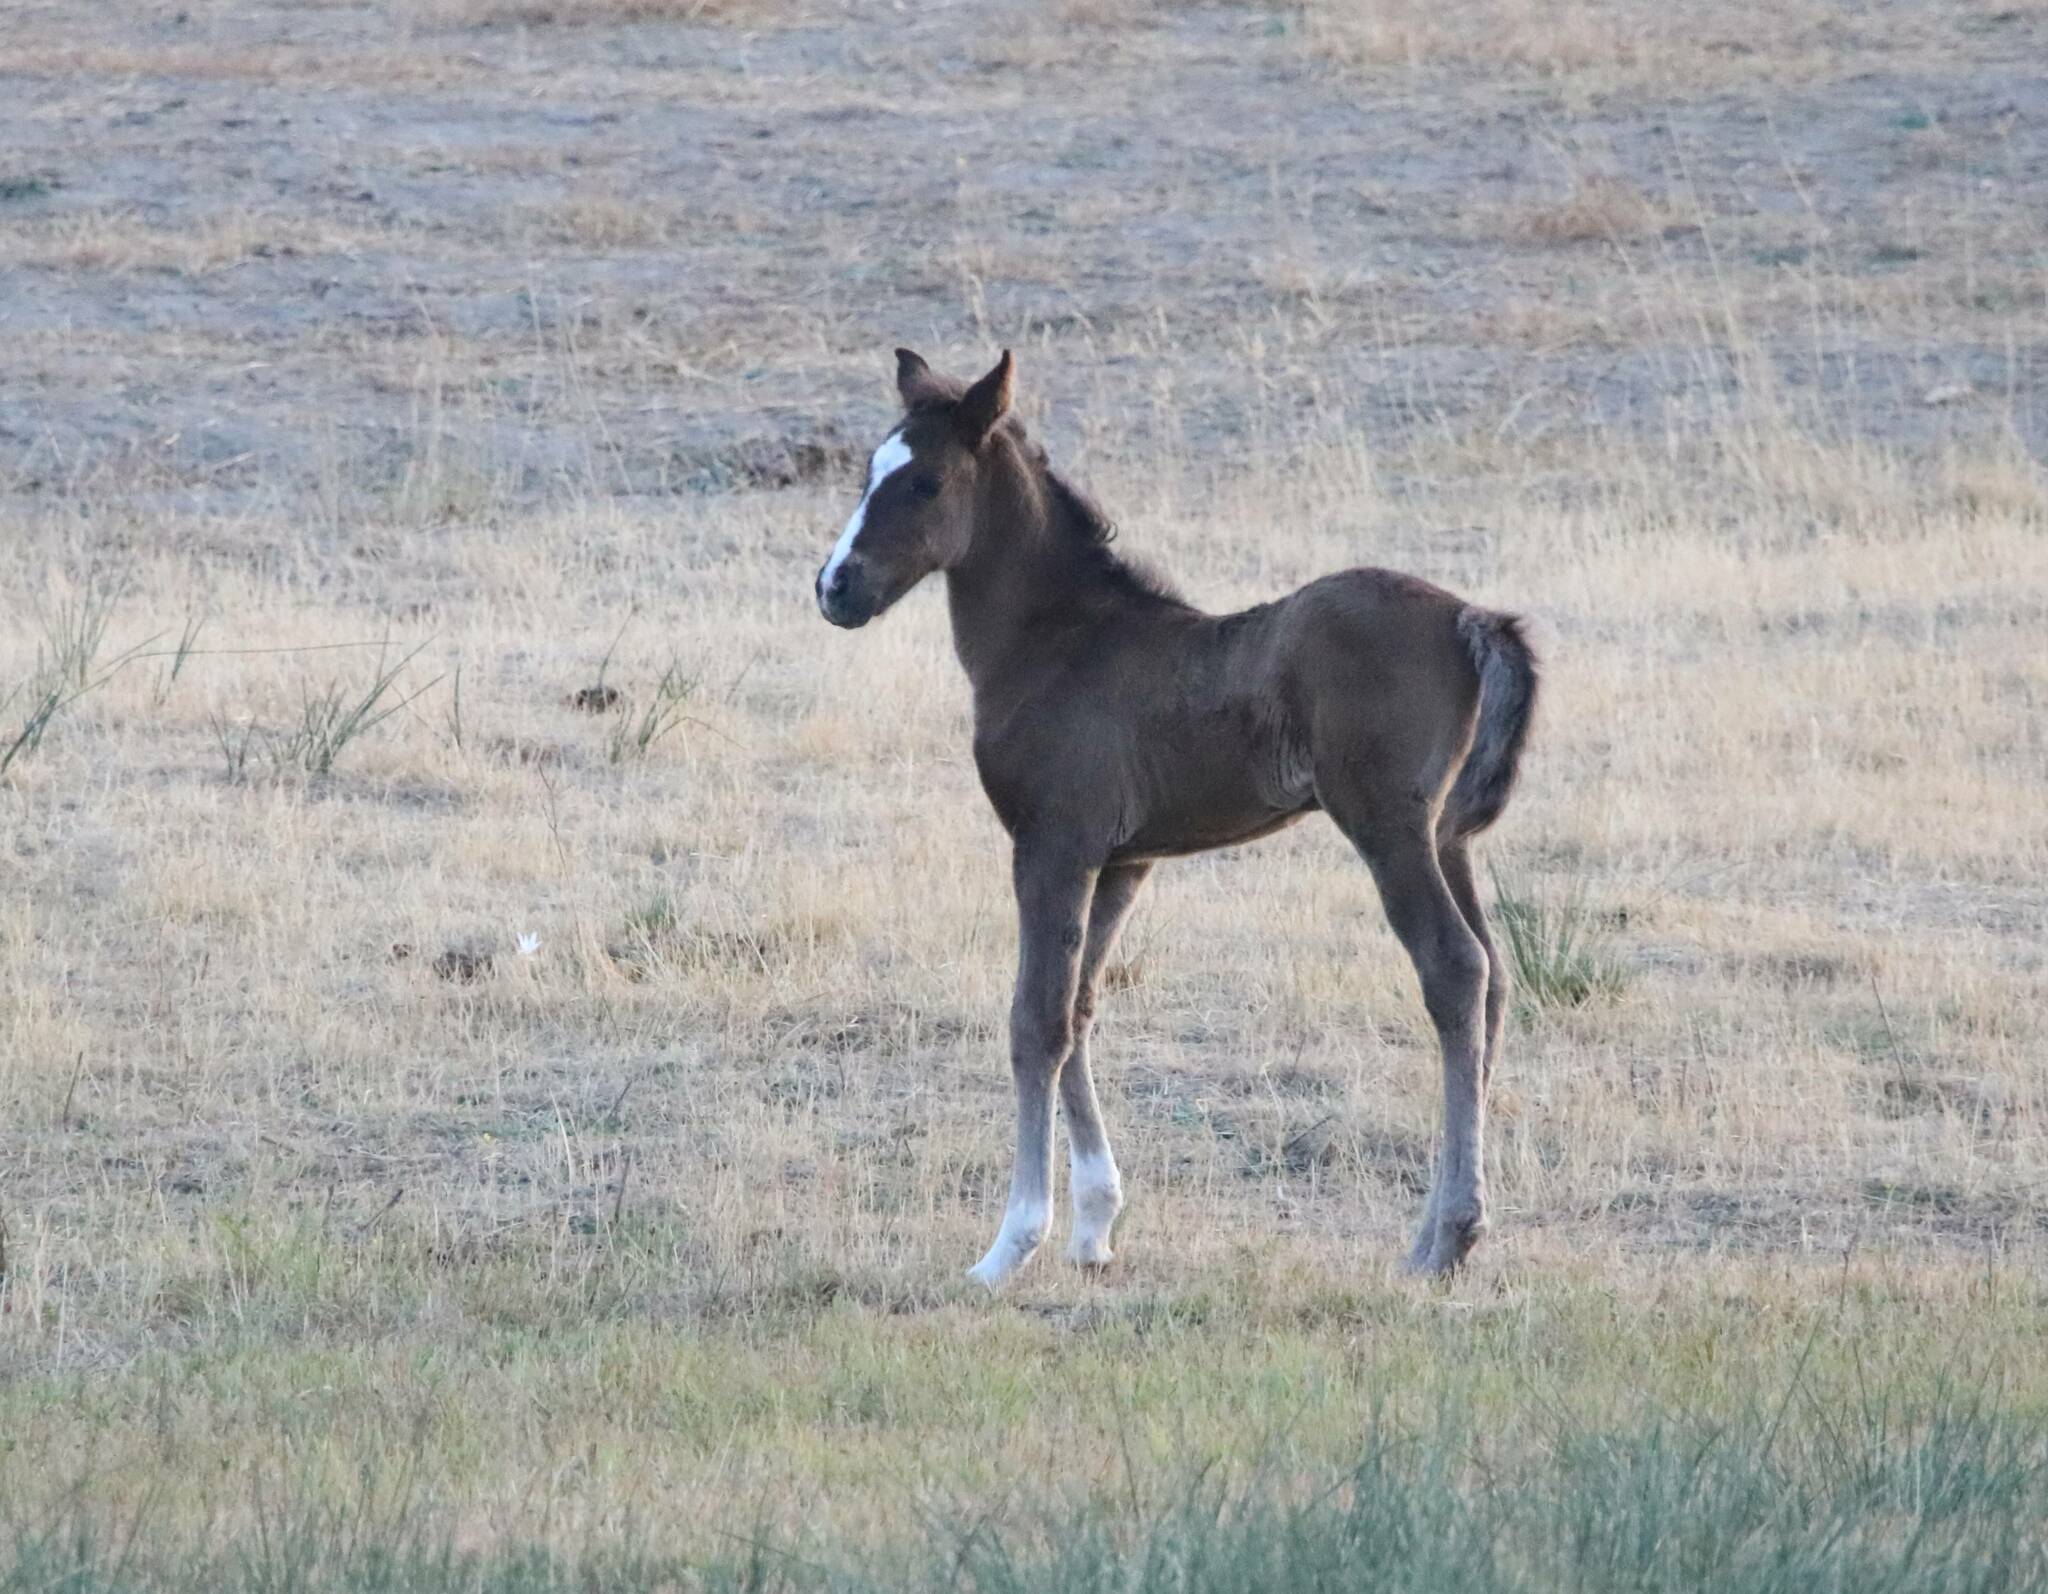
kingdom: Animalia
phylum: Chordata
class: Mammalia
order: Perissodactyla
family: Equidae
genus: Equus
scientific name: Equus caballus
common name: Horse
